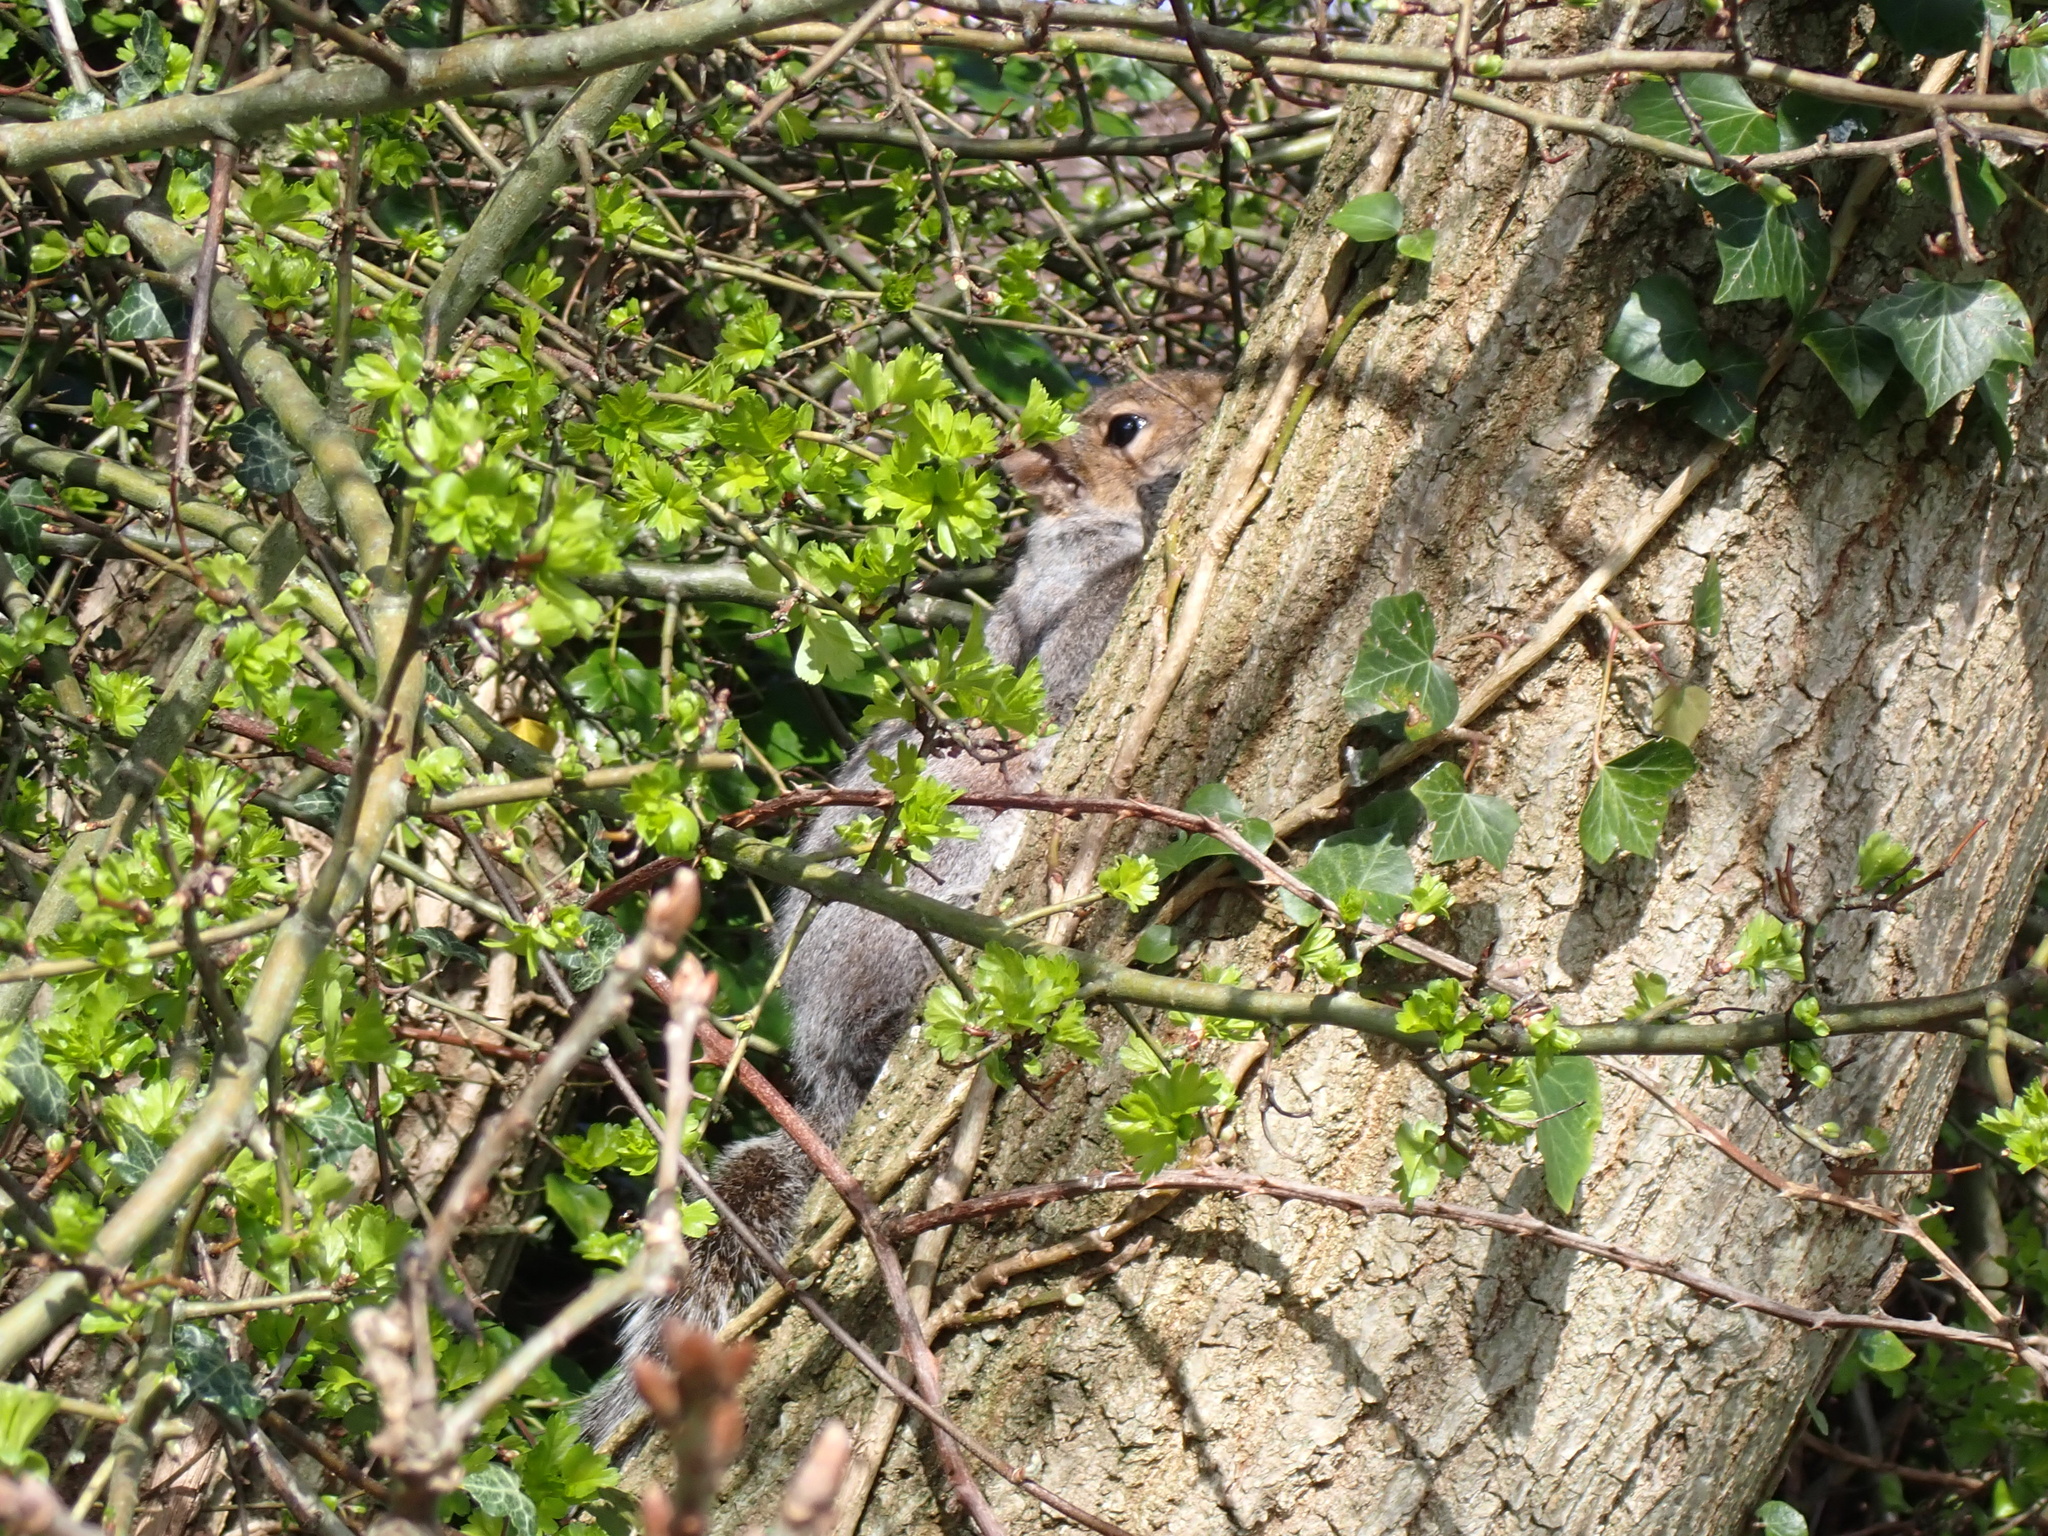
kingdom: Animalia
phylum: Chordata
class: Mammalia
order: Rodentia
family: Sciuridae
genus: Sciurus
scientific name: Sciurus carolinensis
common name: Eastern gray squirrel
